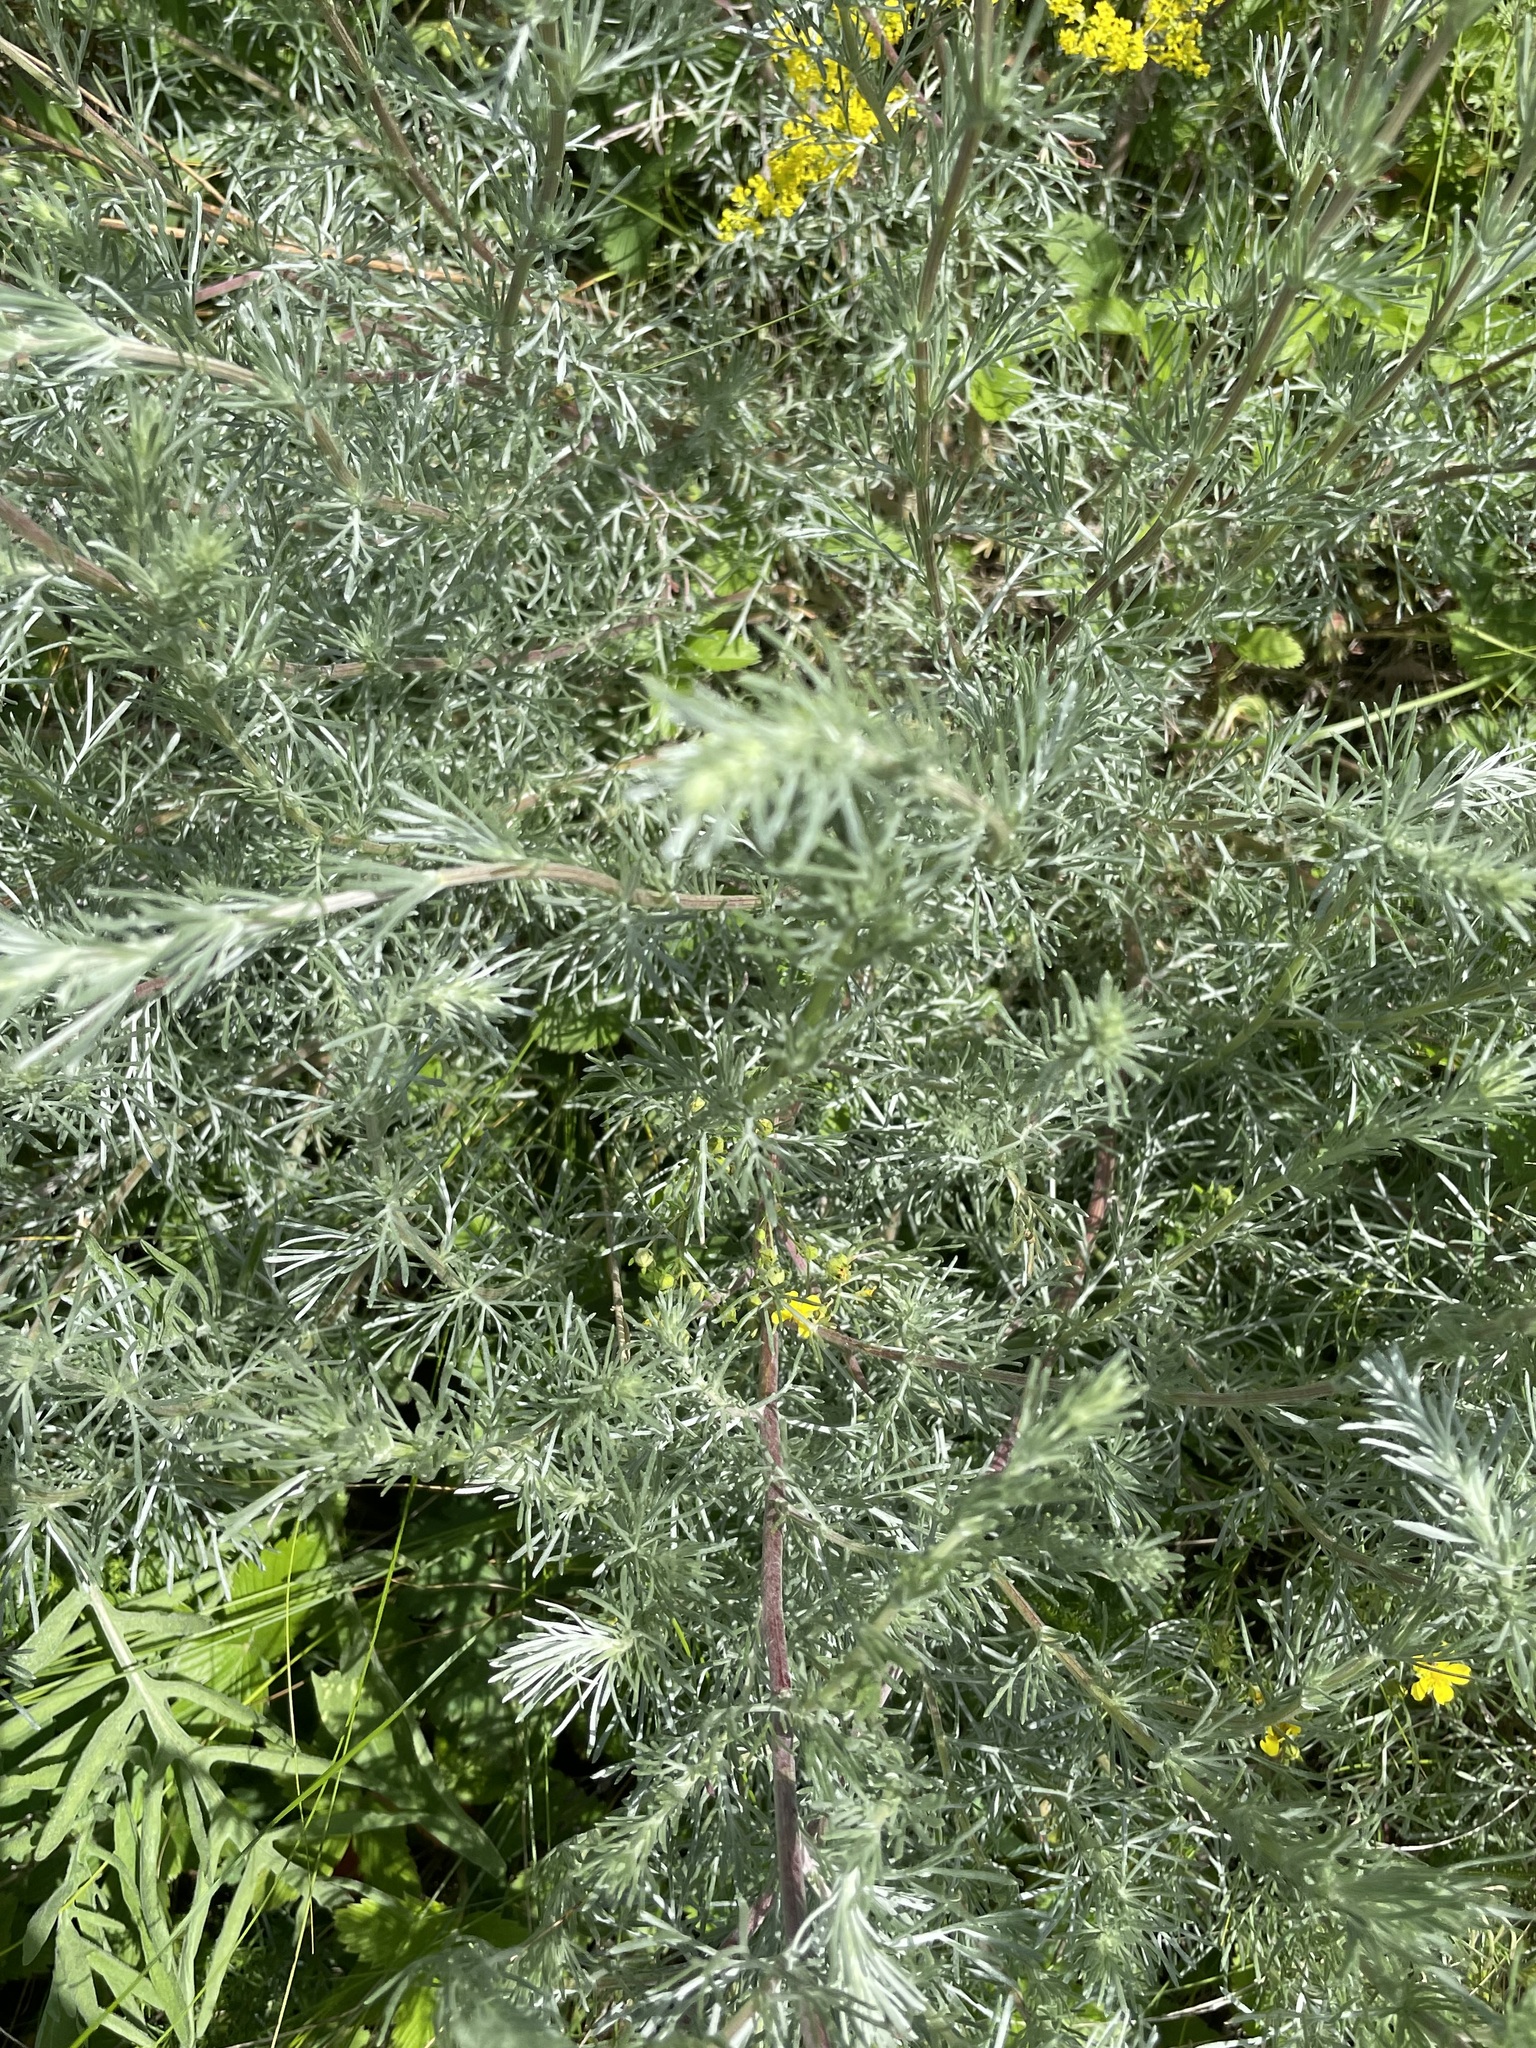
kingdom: Plantae
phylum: Tracheophyta
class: Magnoliopsida
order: Asterales
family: Asteraceae
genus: Artemisia
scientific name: Artemisia campestris
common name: Field wormwood
